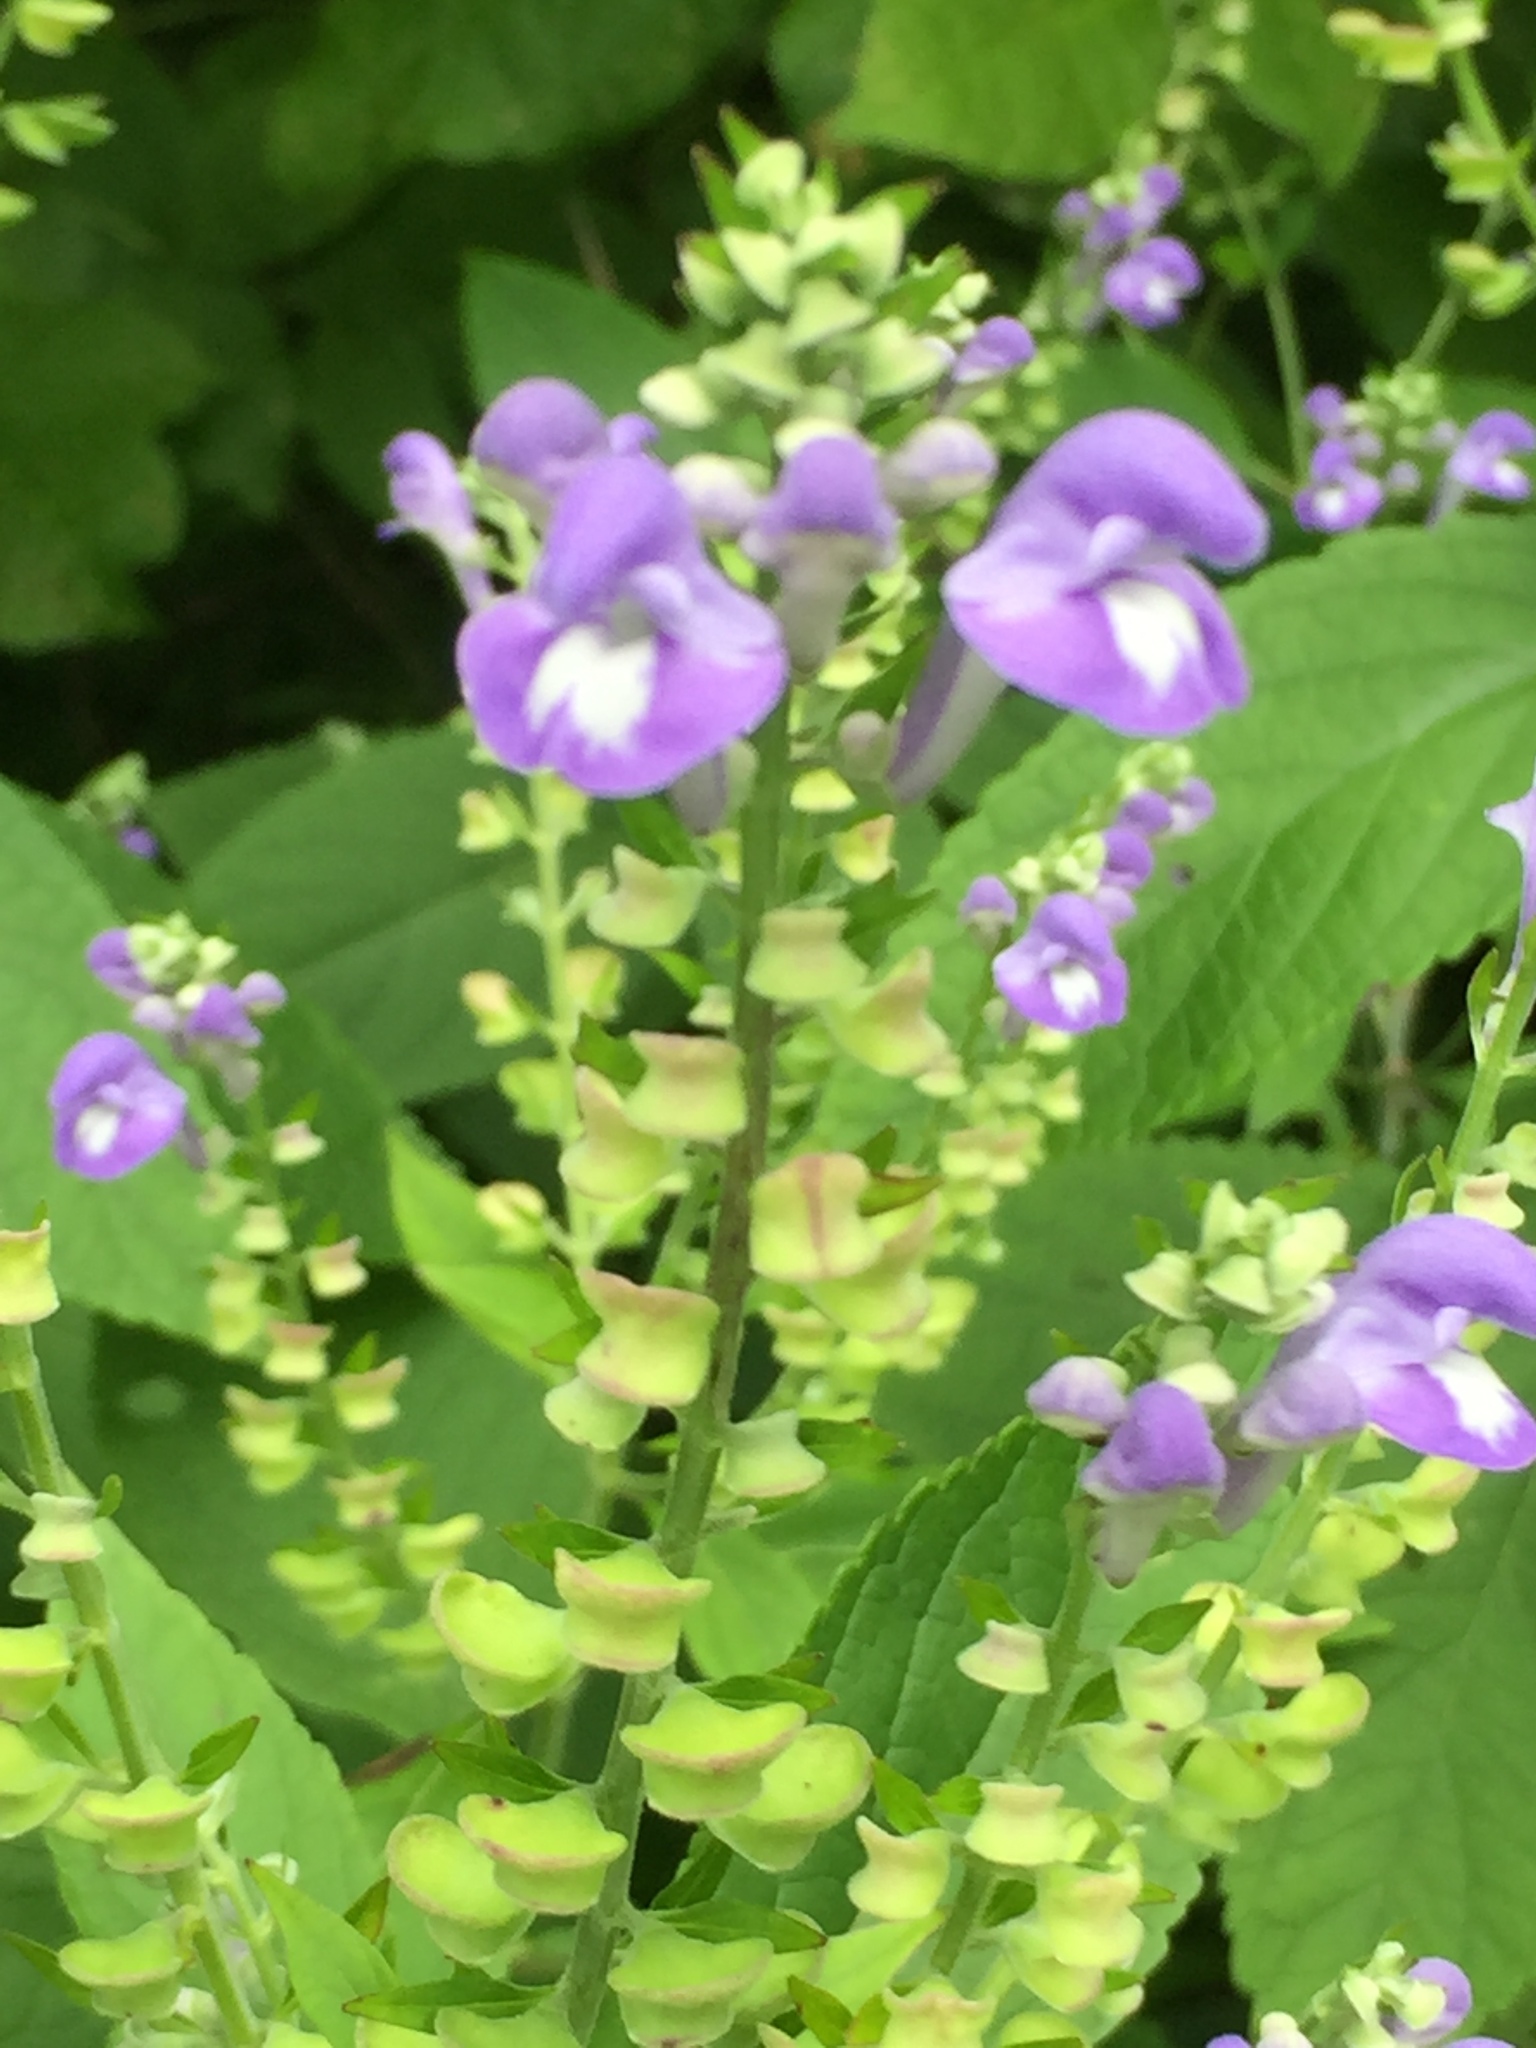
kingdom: Plantae
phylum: Tracheophyta
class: Magnoliopsida
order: Lamiales
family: Lamiaceae
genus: Scutellaria
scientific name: Scutellaria incana
